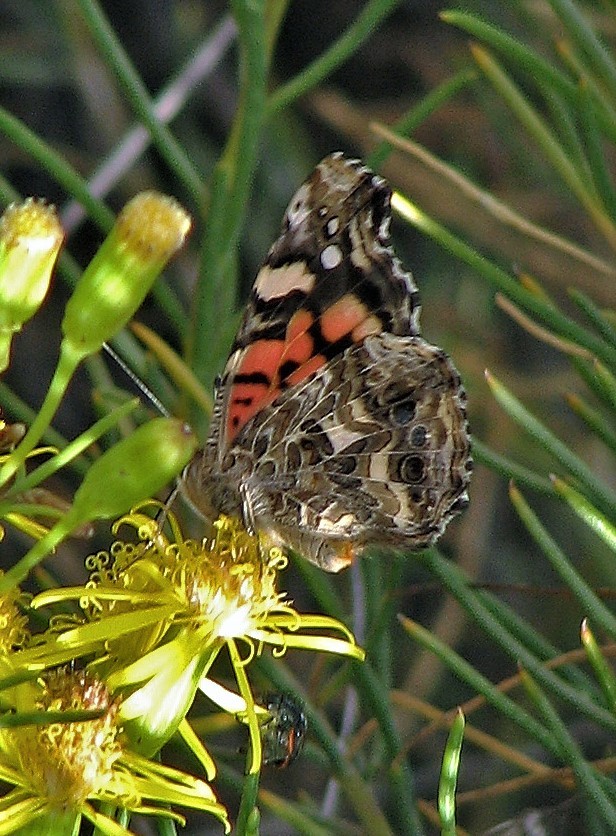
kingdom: Animalia
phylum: Arthropoda
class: Insecta
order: Lepidoptera
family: Nymphalidae
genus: Vanessa
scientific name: Vanessa carye
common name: Subtropical lady
